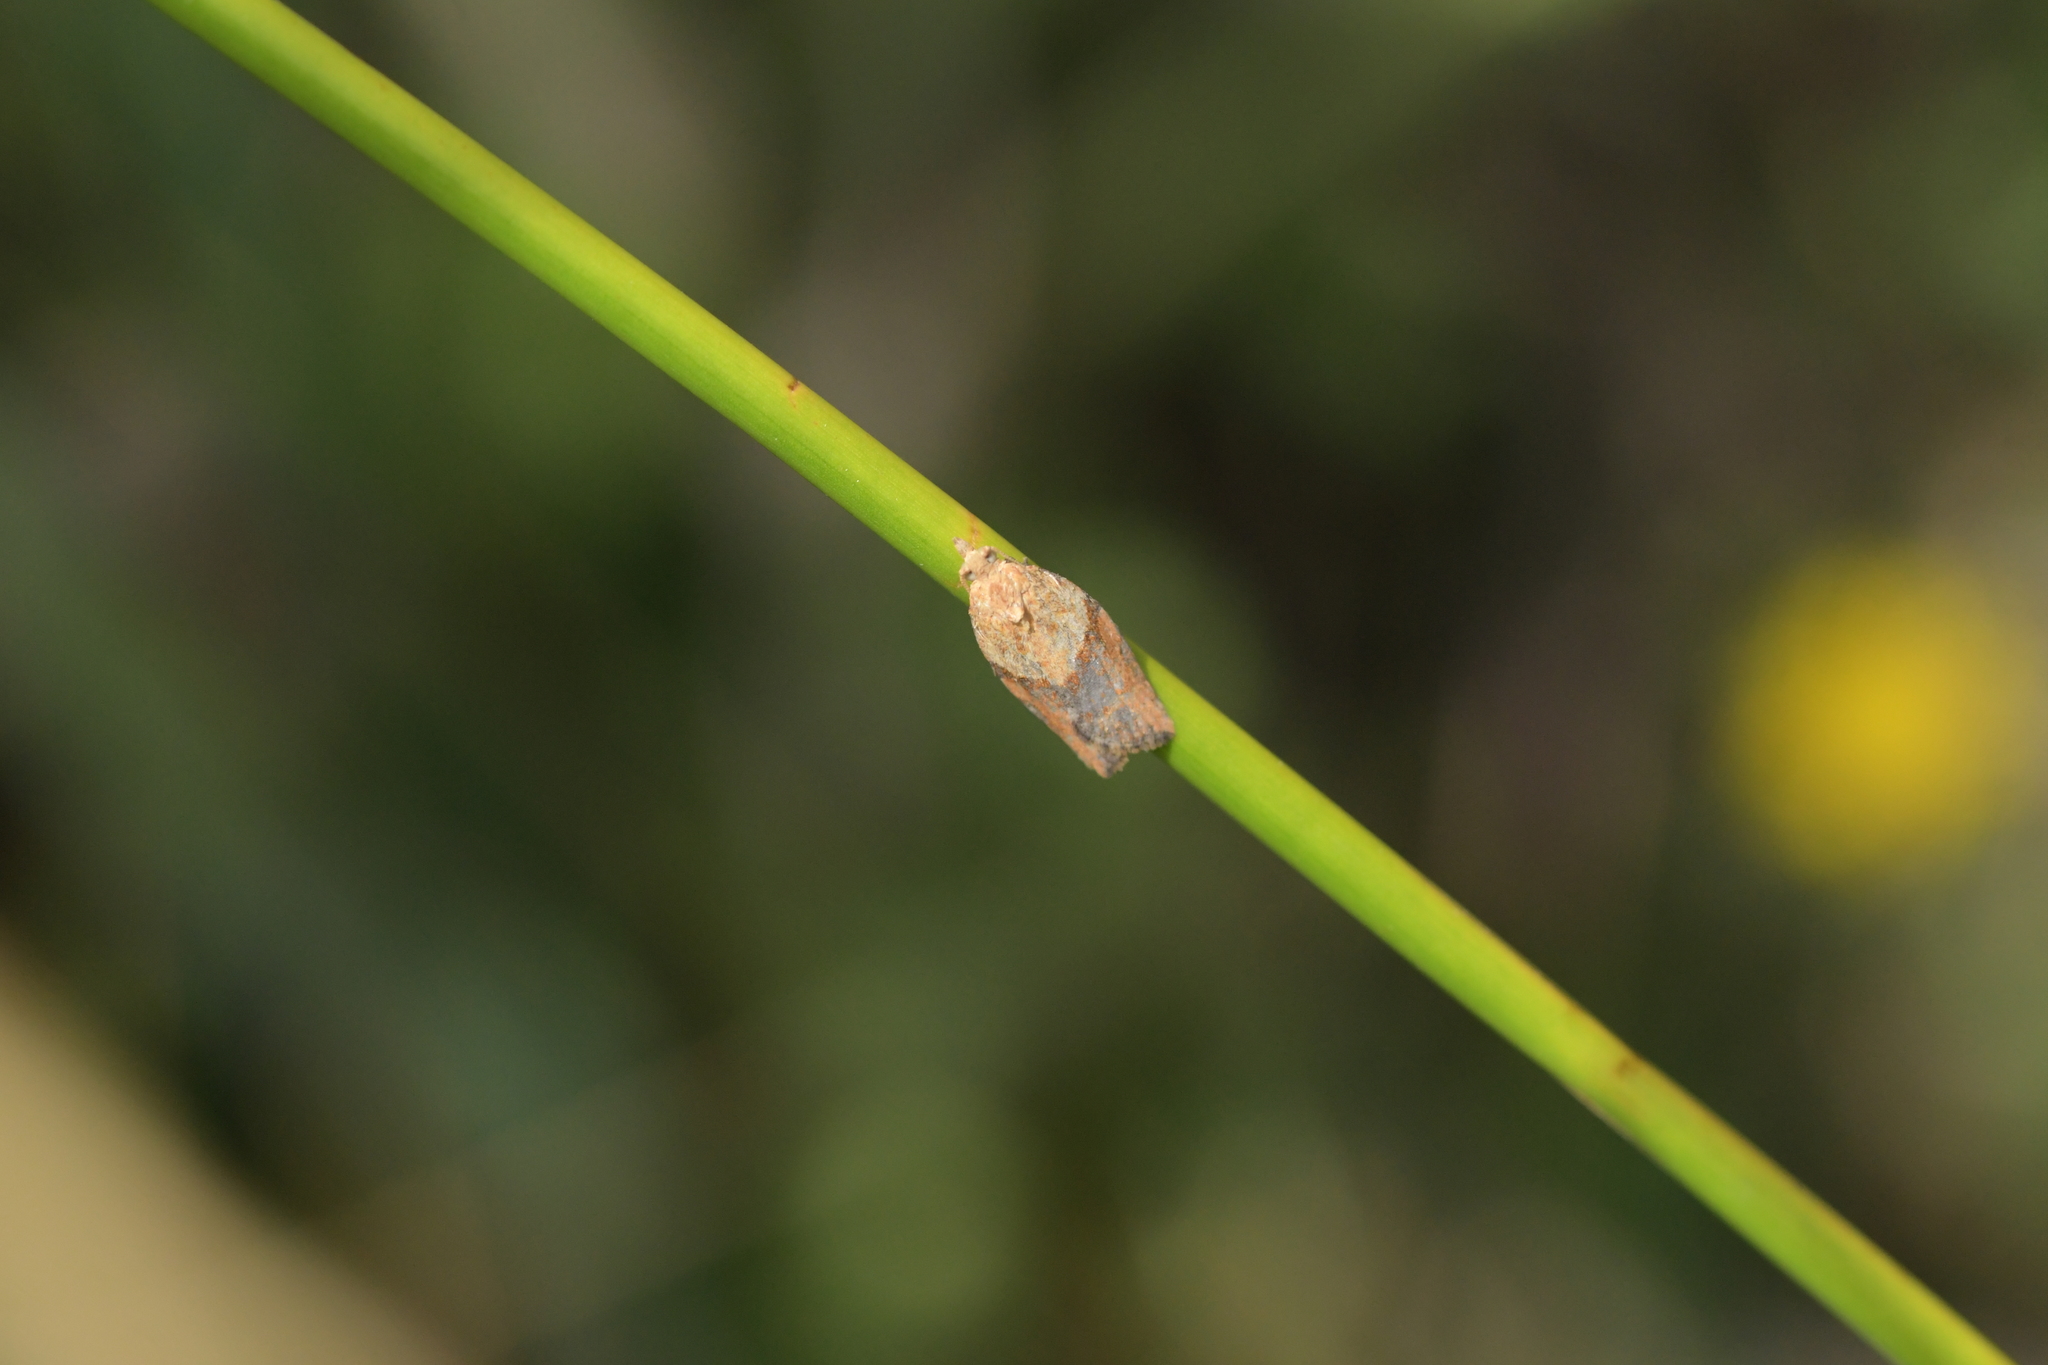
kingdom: Animalia
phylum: Arthropoda
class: Insecta
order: Lepidoptera
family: Tortricidae
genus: Epiphyas
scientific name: Epiphyas postvittana
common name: Light brown apple moth
